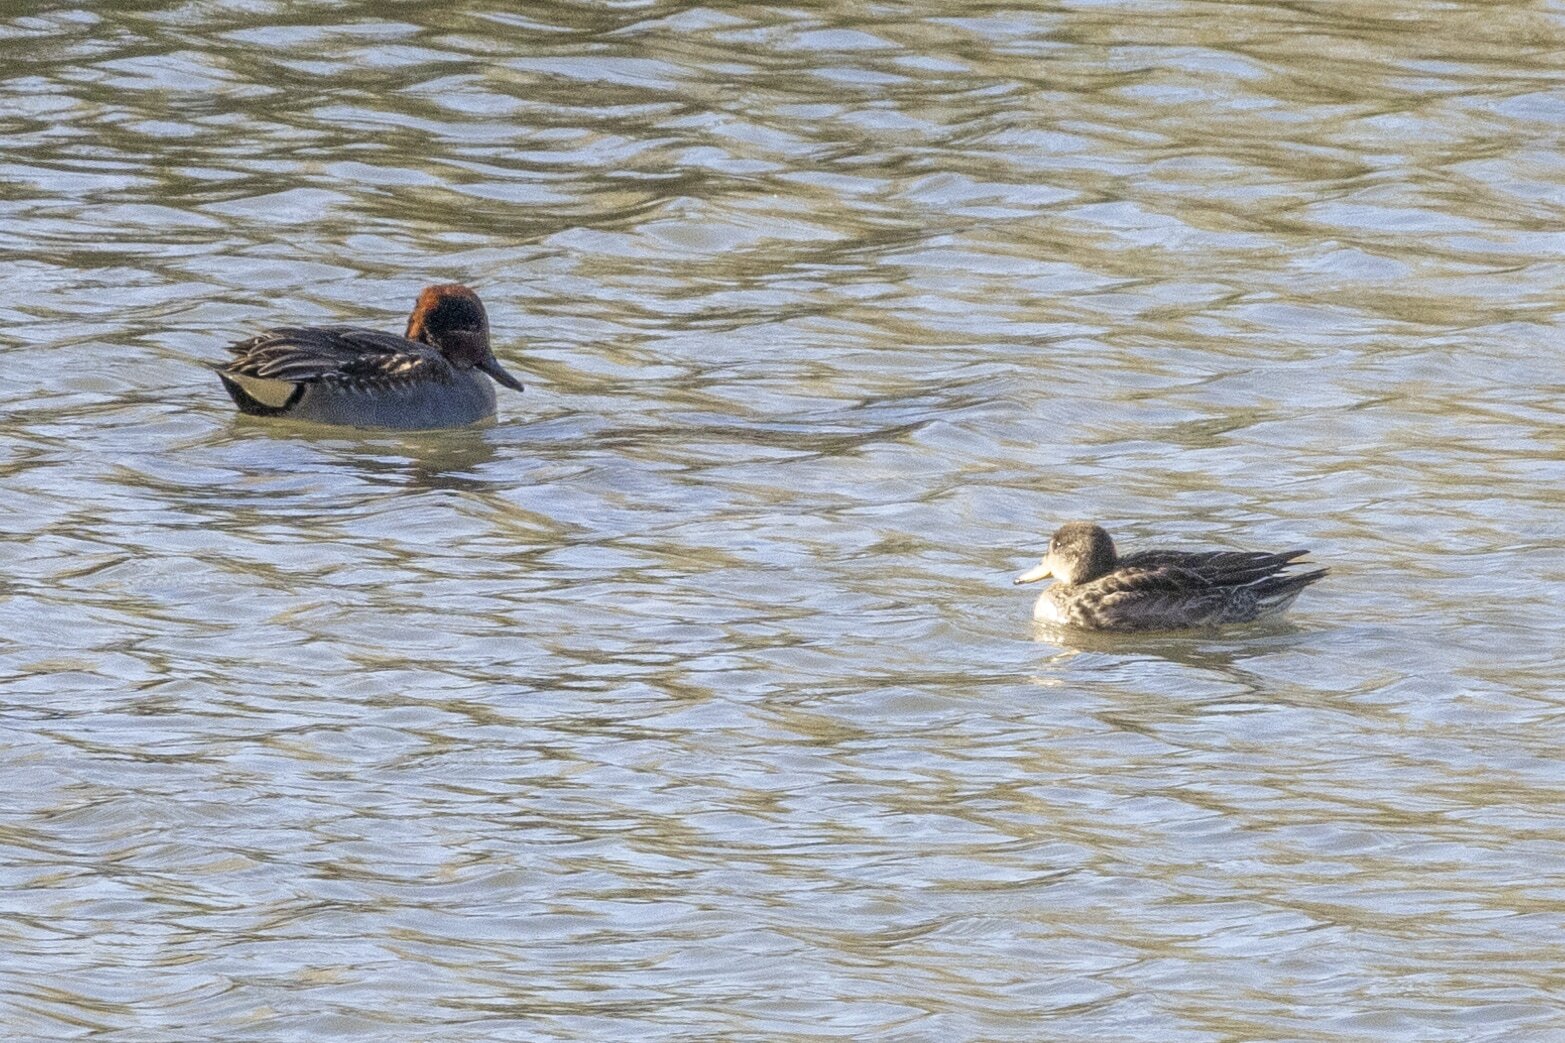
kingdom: Animalia
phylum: Chordata
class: Aves
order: Anseriformes
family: Anatidae
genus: Anas
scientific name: Anas crecca
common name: Eurasian teal
